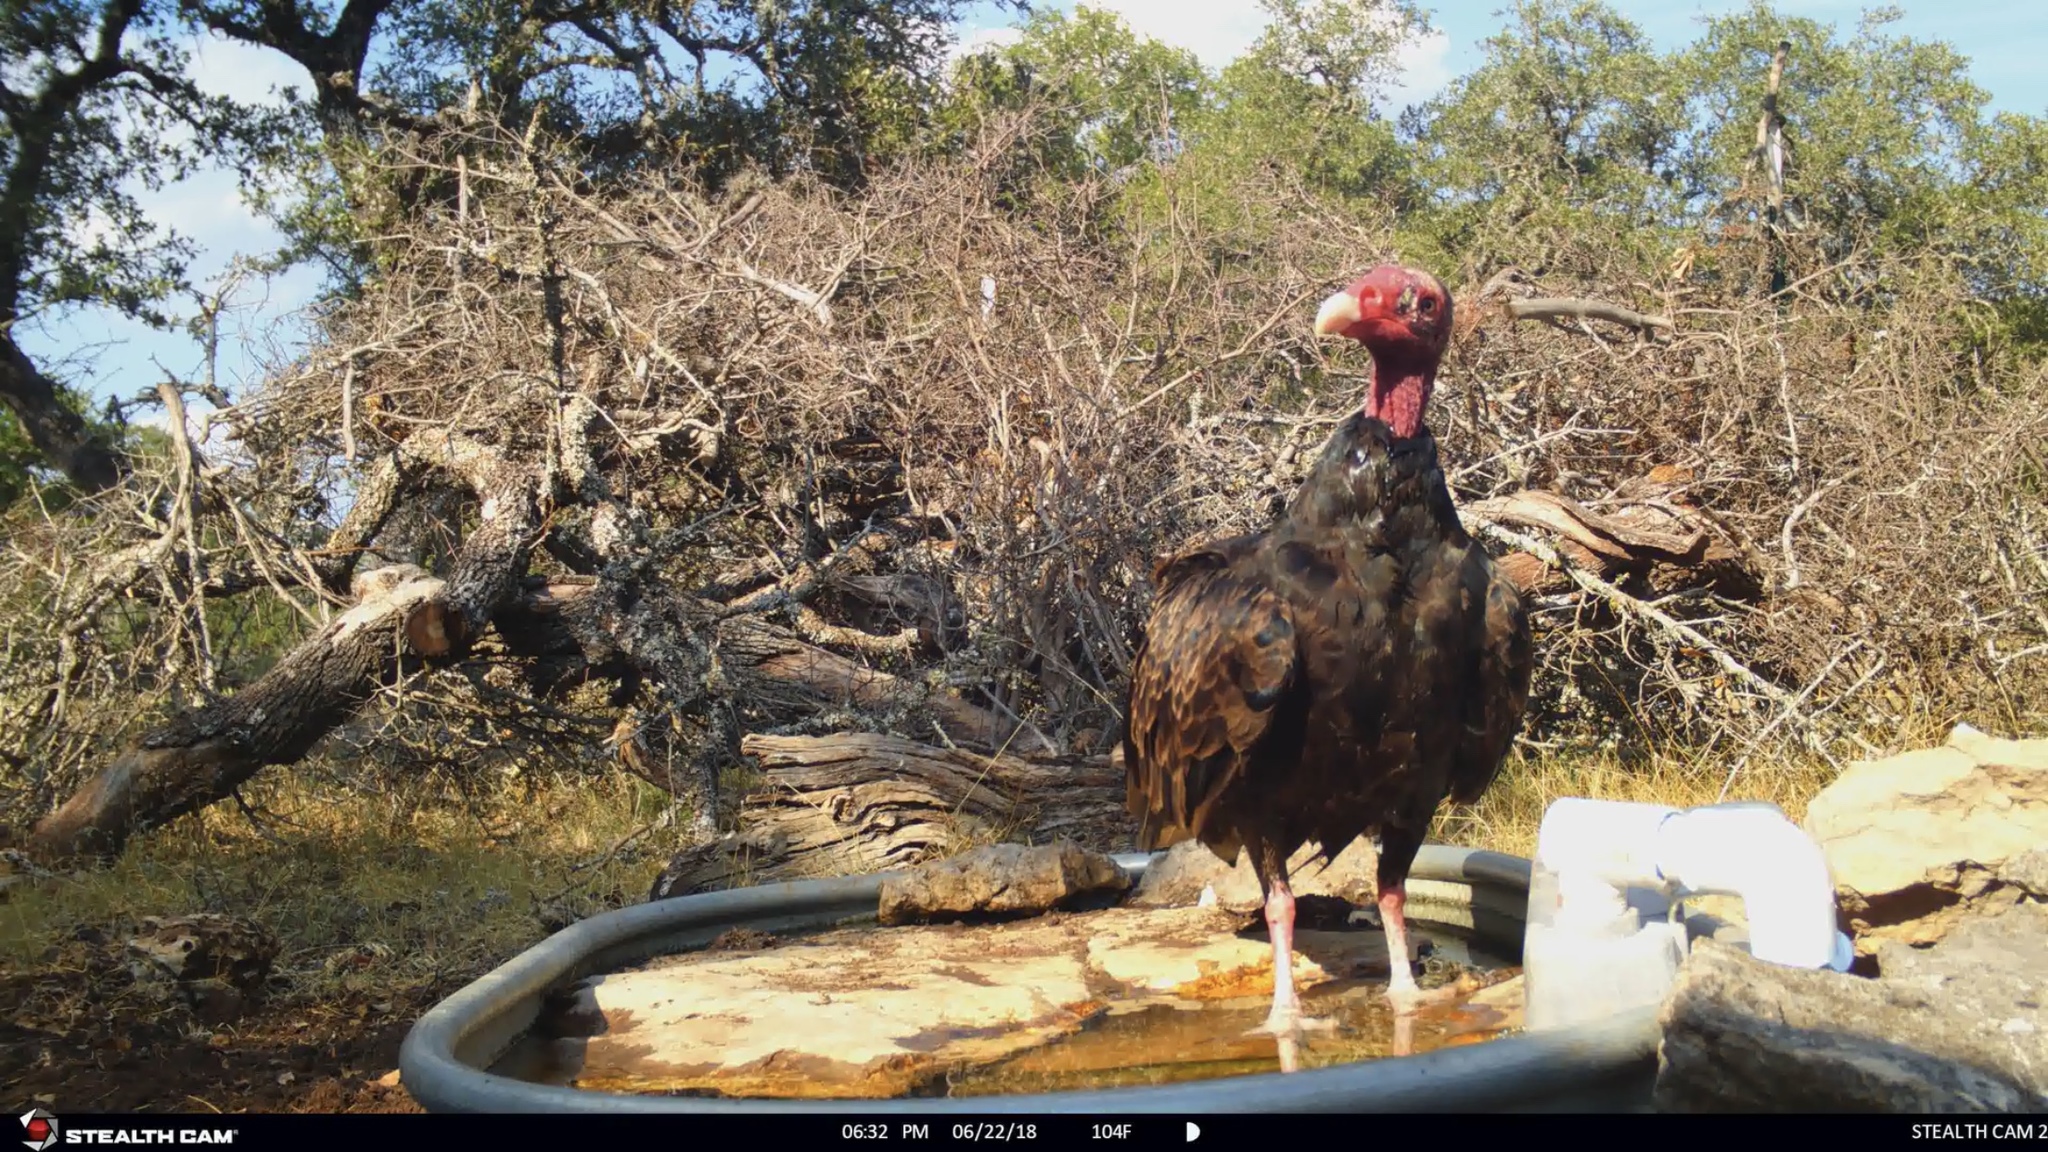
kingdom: Animalia
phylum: Chordata
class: Aves
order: Accipitriformes
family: Cathartidae
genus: Cathartes
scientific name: Cathartes aura
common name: Turkey vulture
